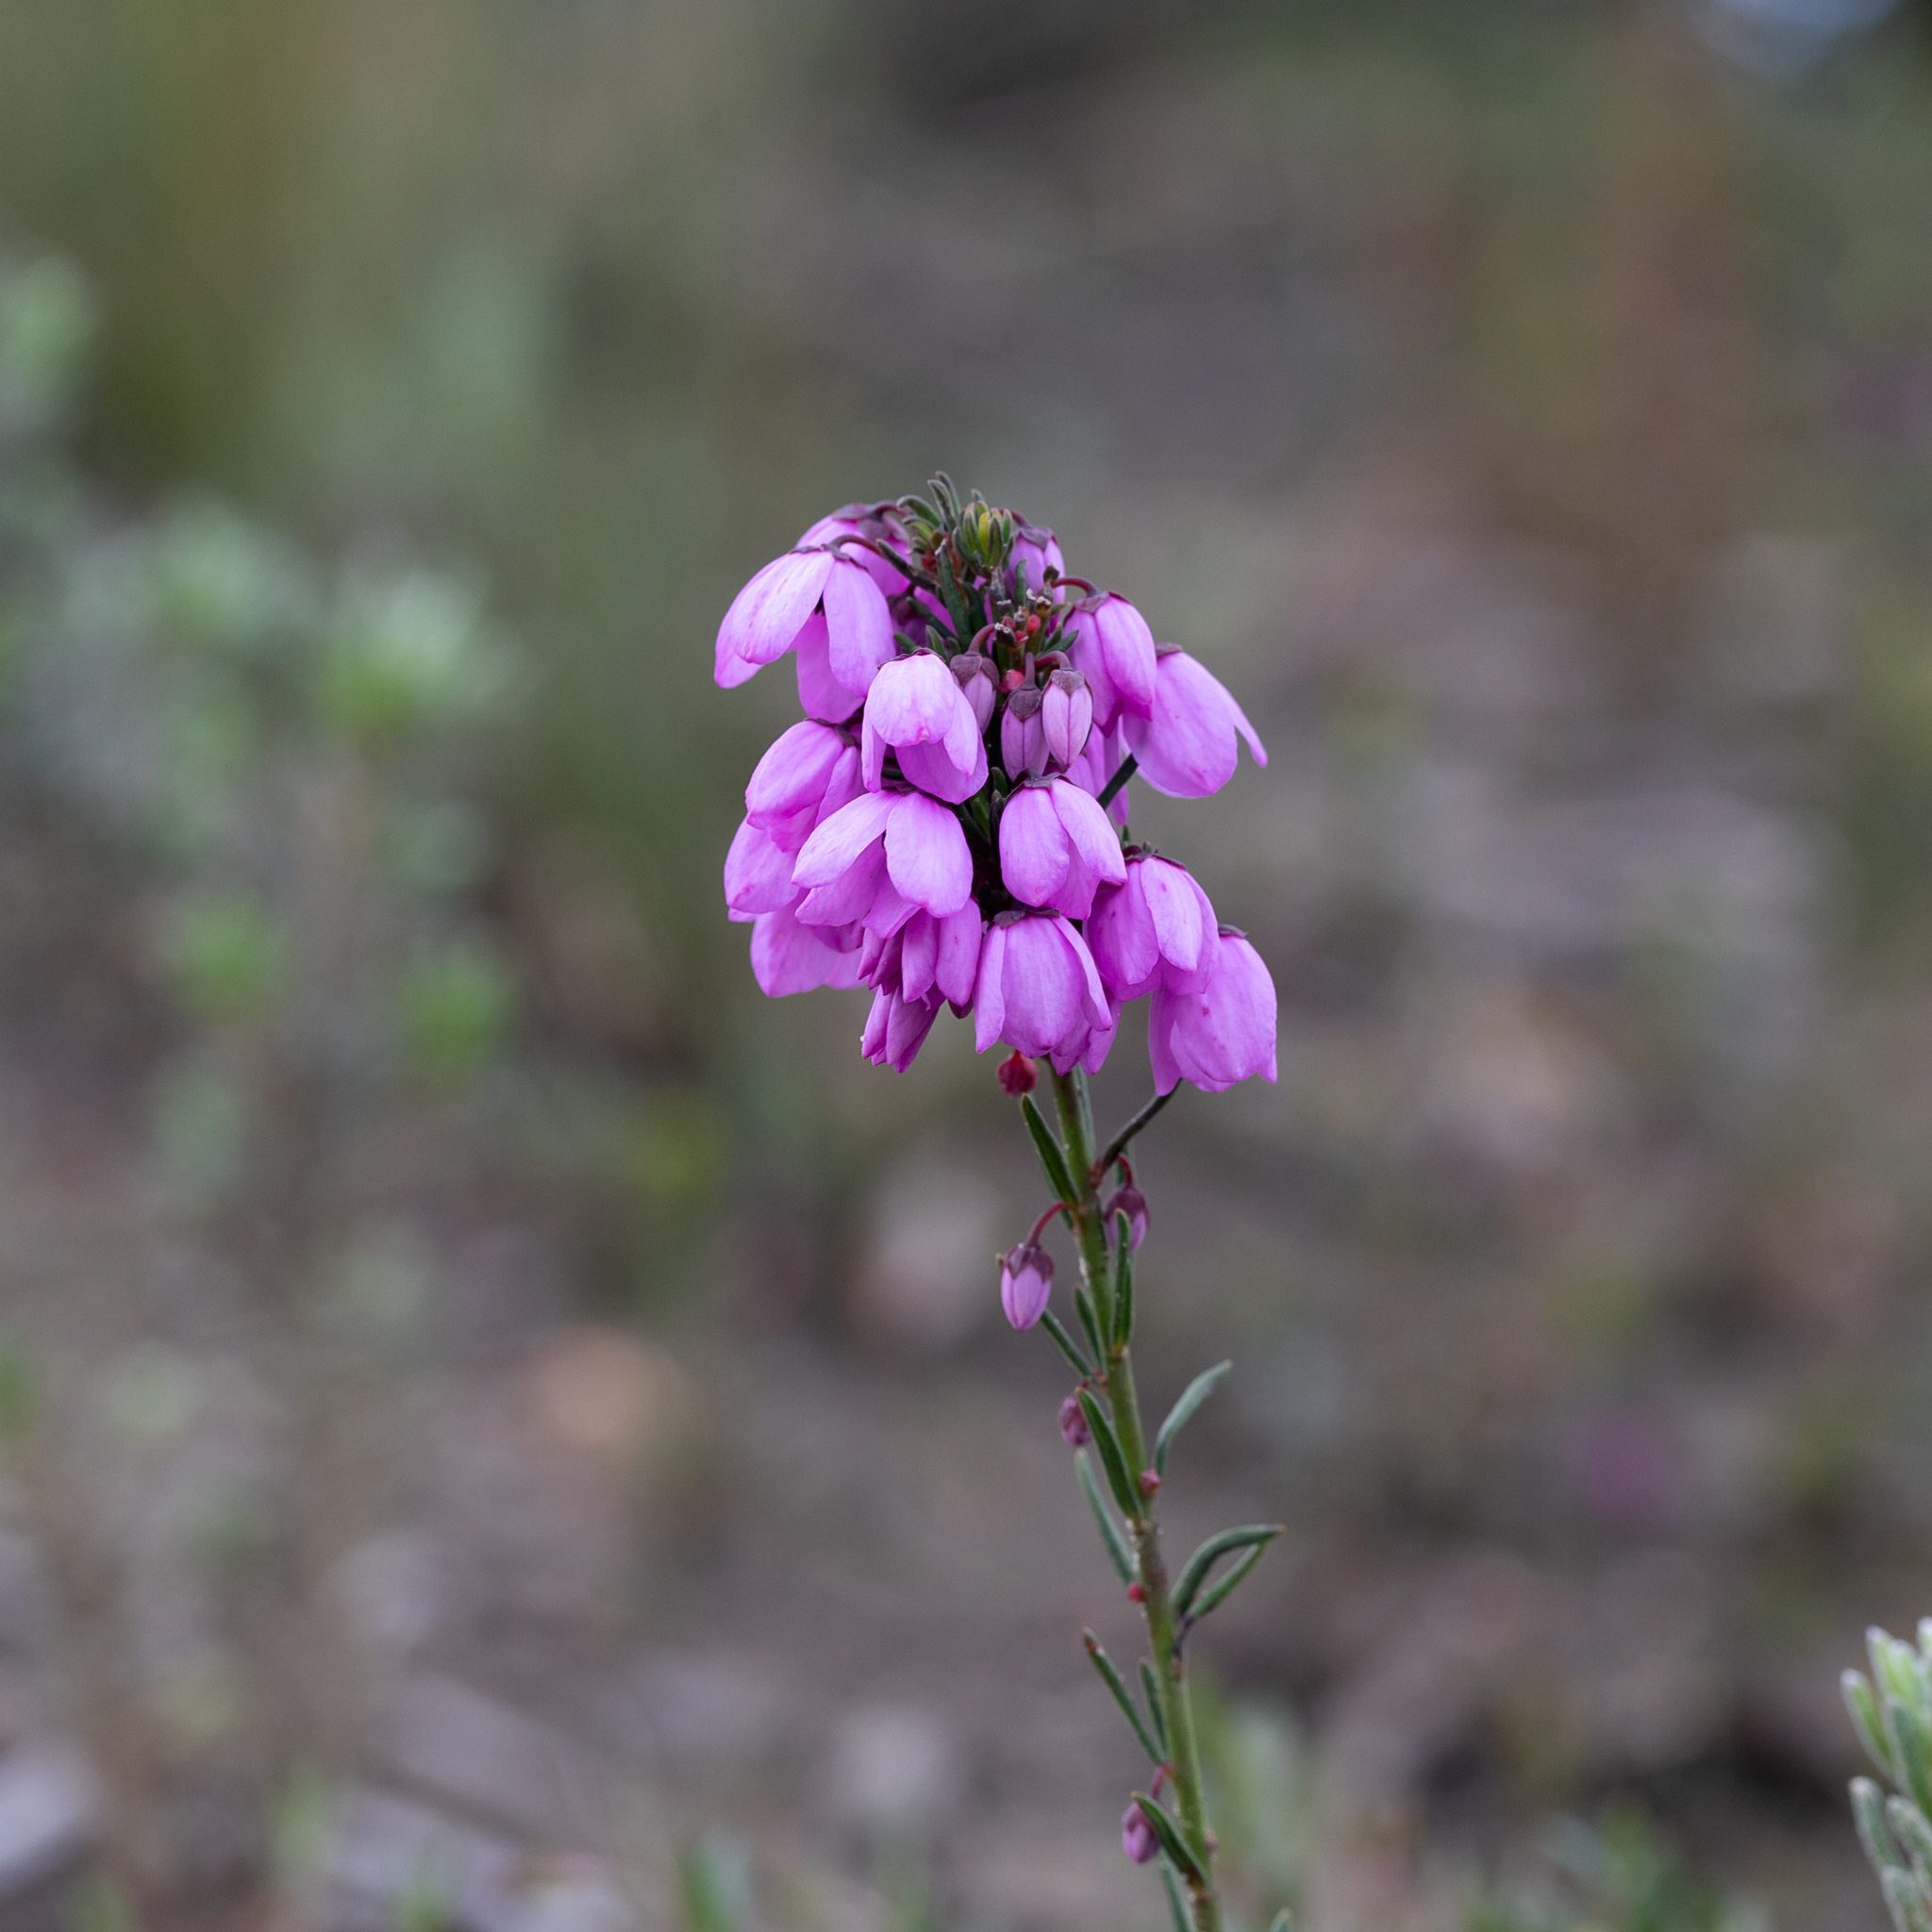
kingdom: Plantae
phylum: Tracheophyta
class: Magnoliopsida
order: Oxalidales
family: Elaeocarpaceae
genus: Tetratheca
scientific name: Tetratheca pilosa
